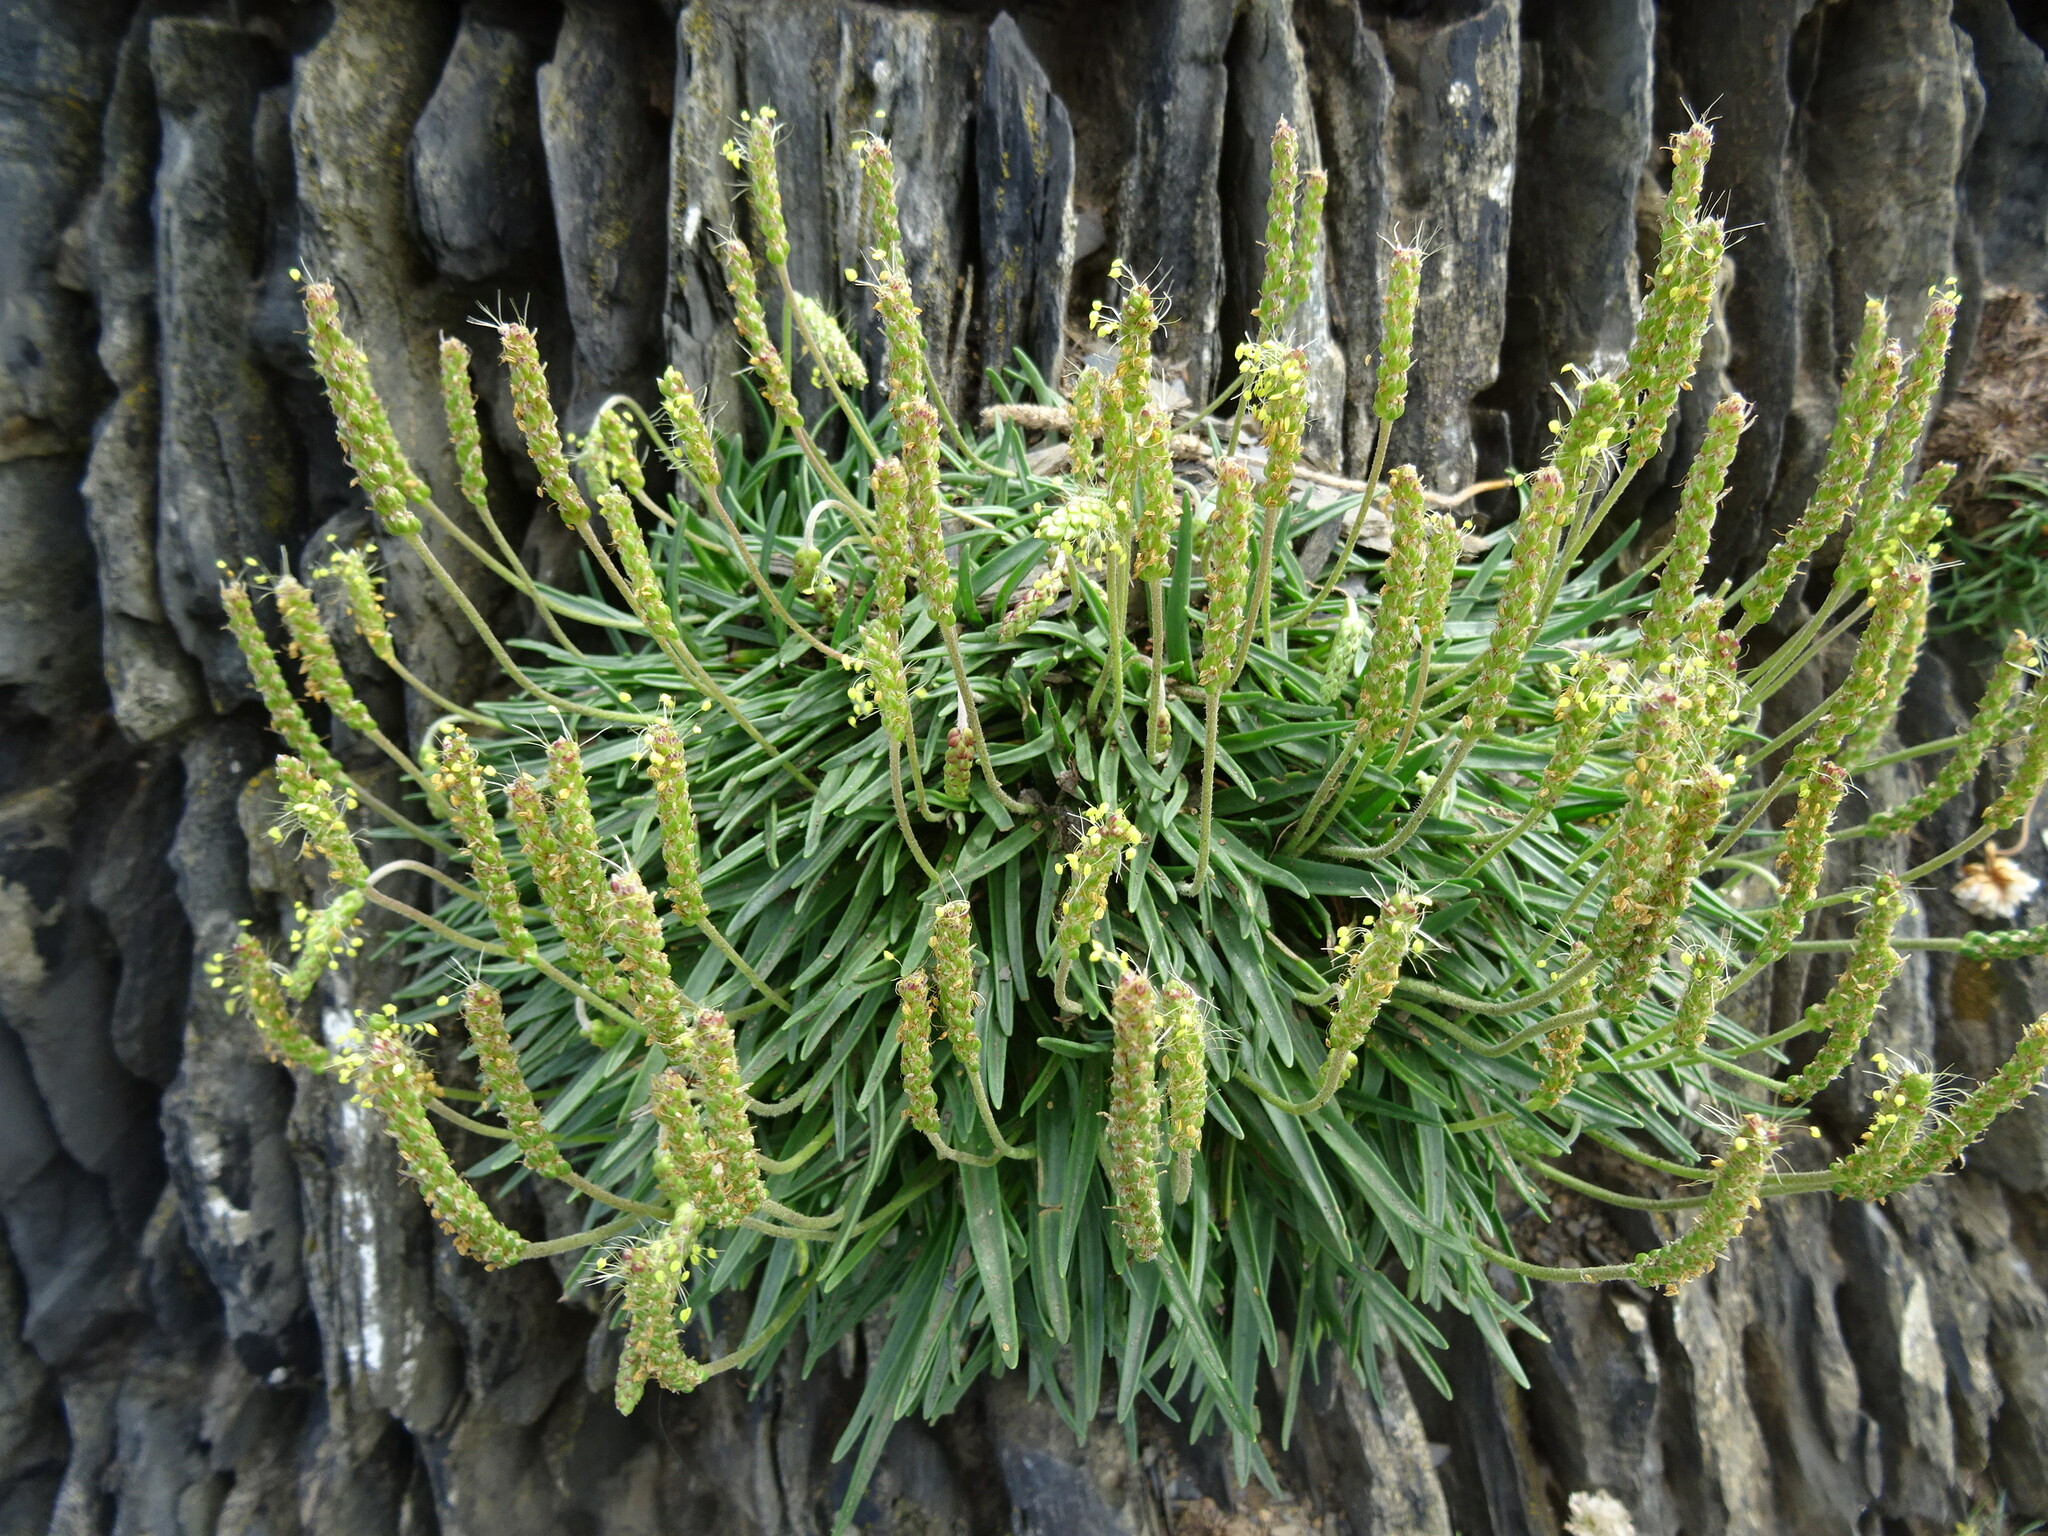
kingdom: Plantae
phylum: Tracheophyta
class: Magnoliopsida
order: Lamiales
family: Plantaginaceae
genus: Plantago
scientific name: Plantago maritima
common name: Sea plantain
